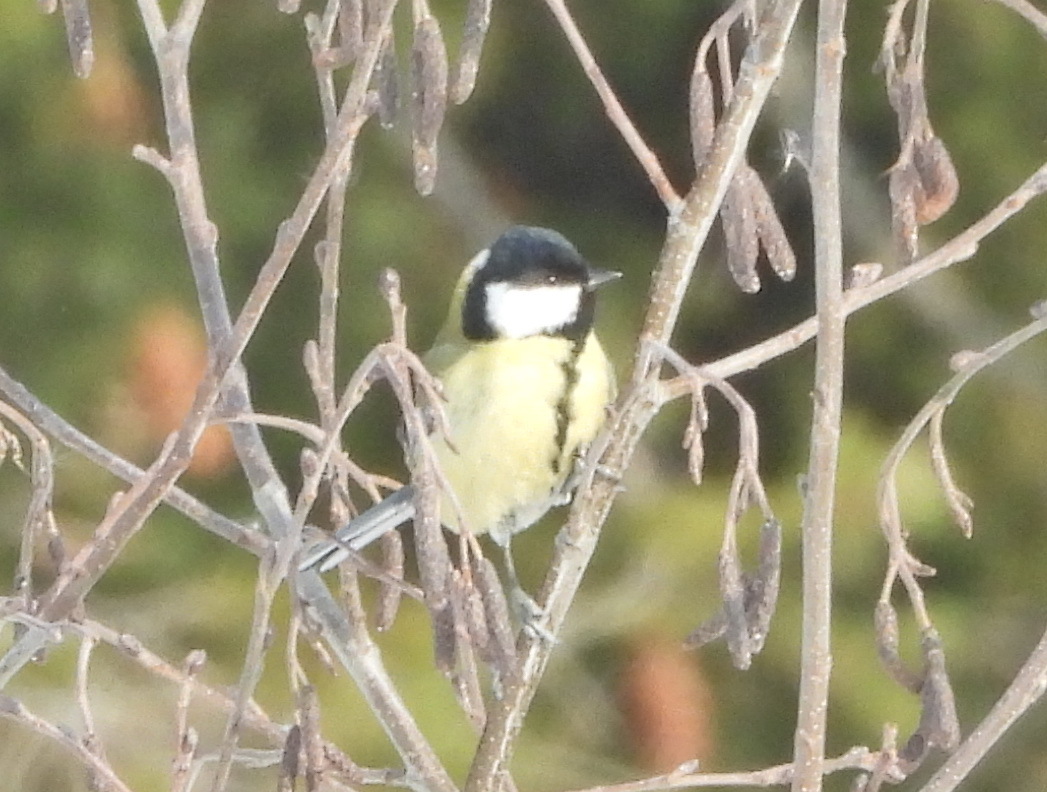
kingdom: Animalia
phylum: Chordata
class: Aves
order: Passeriformes
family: Paridae
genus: Parus
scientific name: Parus major
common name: Great tit
